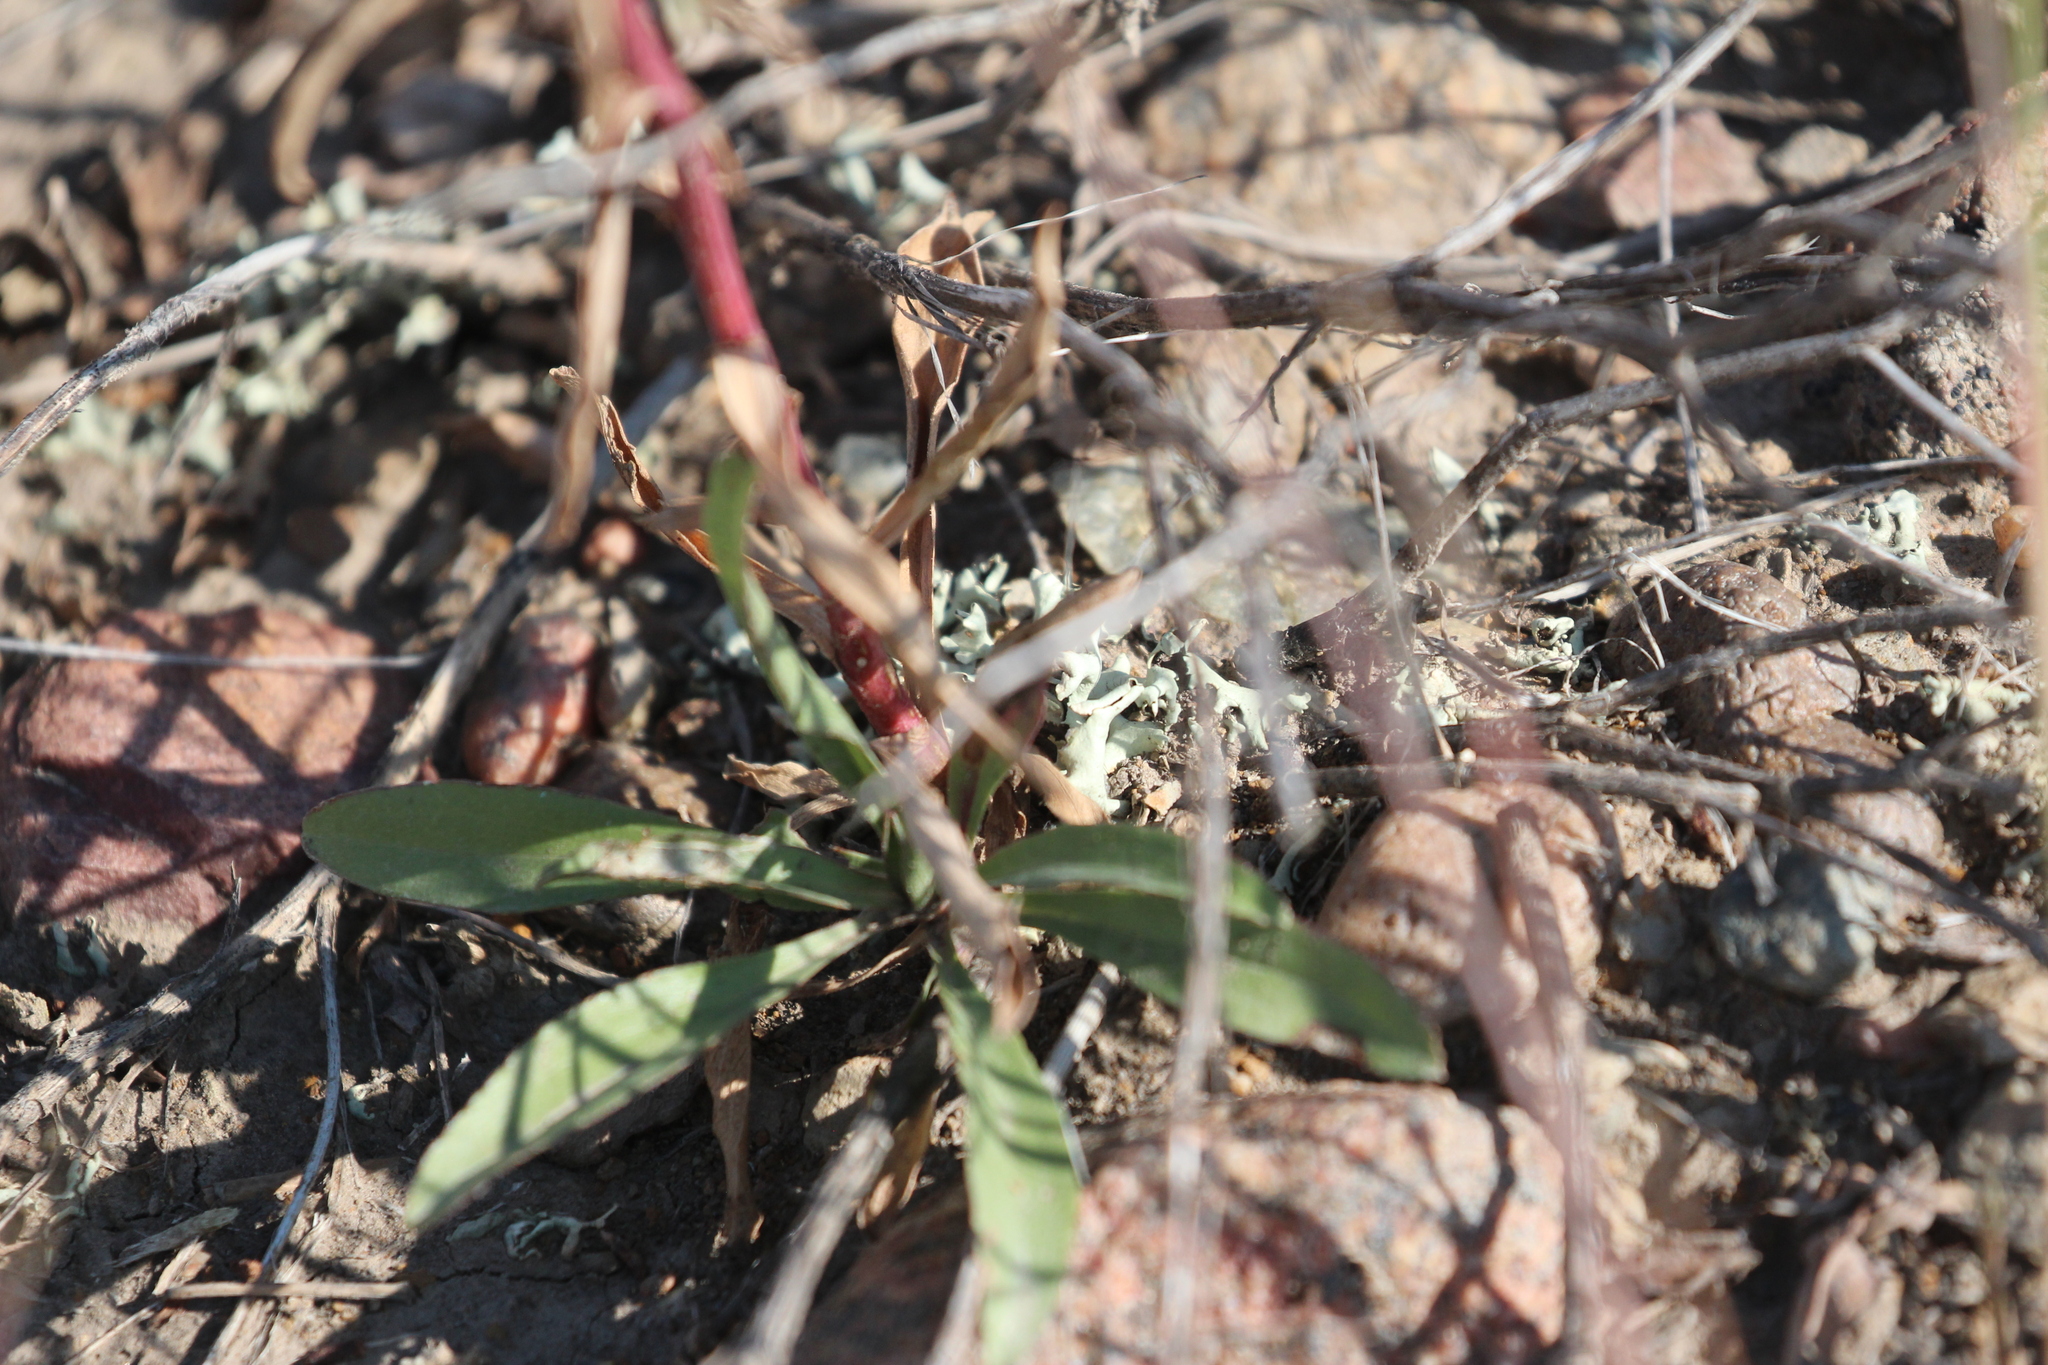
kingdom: Plantae
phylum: Tracheophyta
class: Magnoliopsida
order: Asterales
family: Asteraceae
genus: Solidago
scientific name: Solidago missouriensis
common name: Prairie goldenrod
